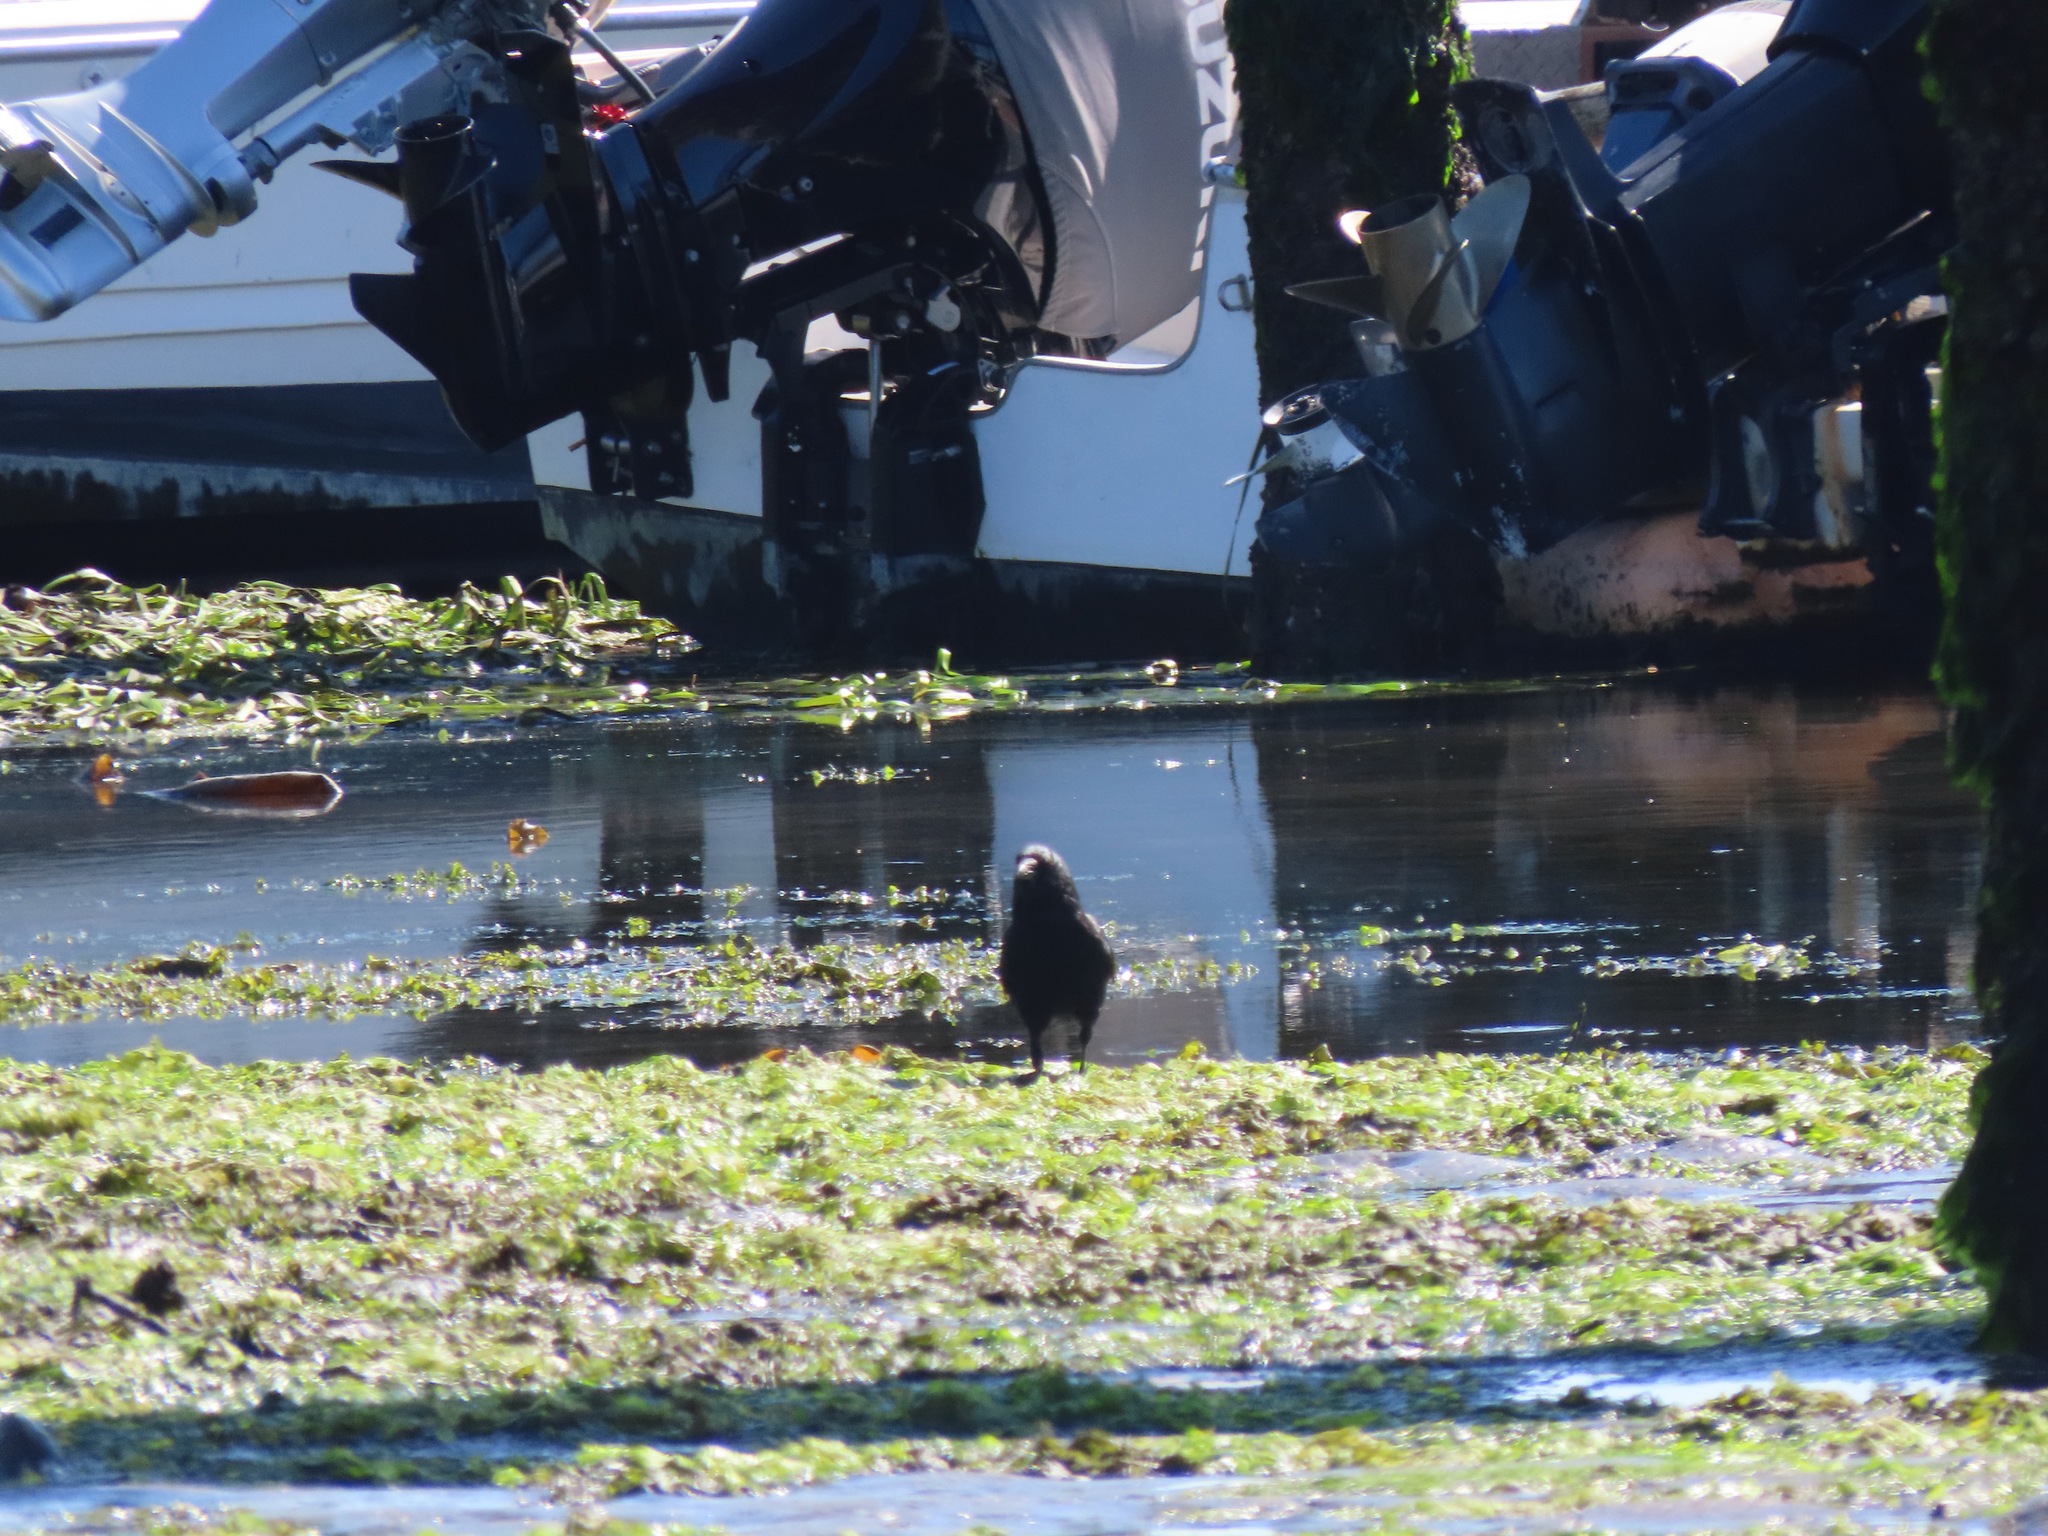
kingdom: Animalia
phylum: Chordata
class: Aves
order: Passeriformes
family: Corvidae
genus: Corvus
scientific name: Corvus brachyrhynchos
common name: American crow
